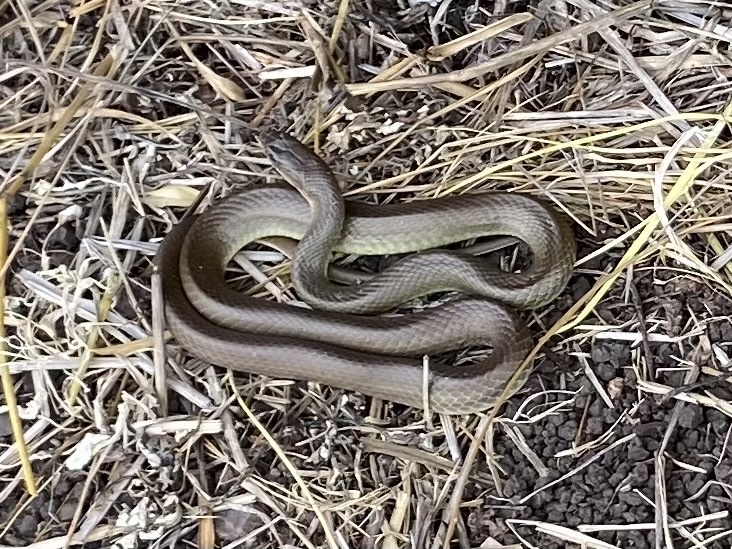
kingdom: Animalia
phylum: Chordata
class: Squamata
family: Colubridae
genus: Coluber
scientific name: Coluber constrictor
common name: Eastern racer
